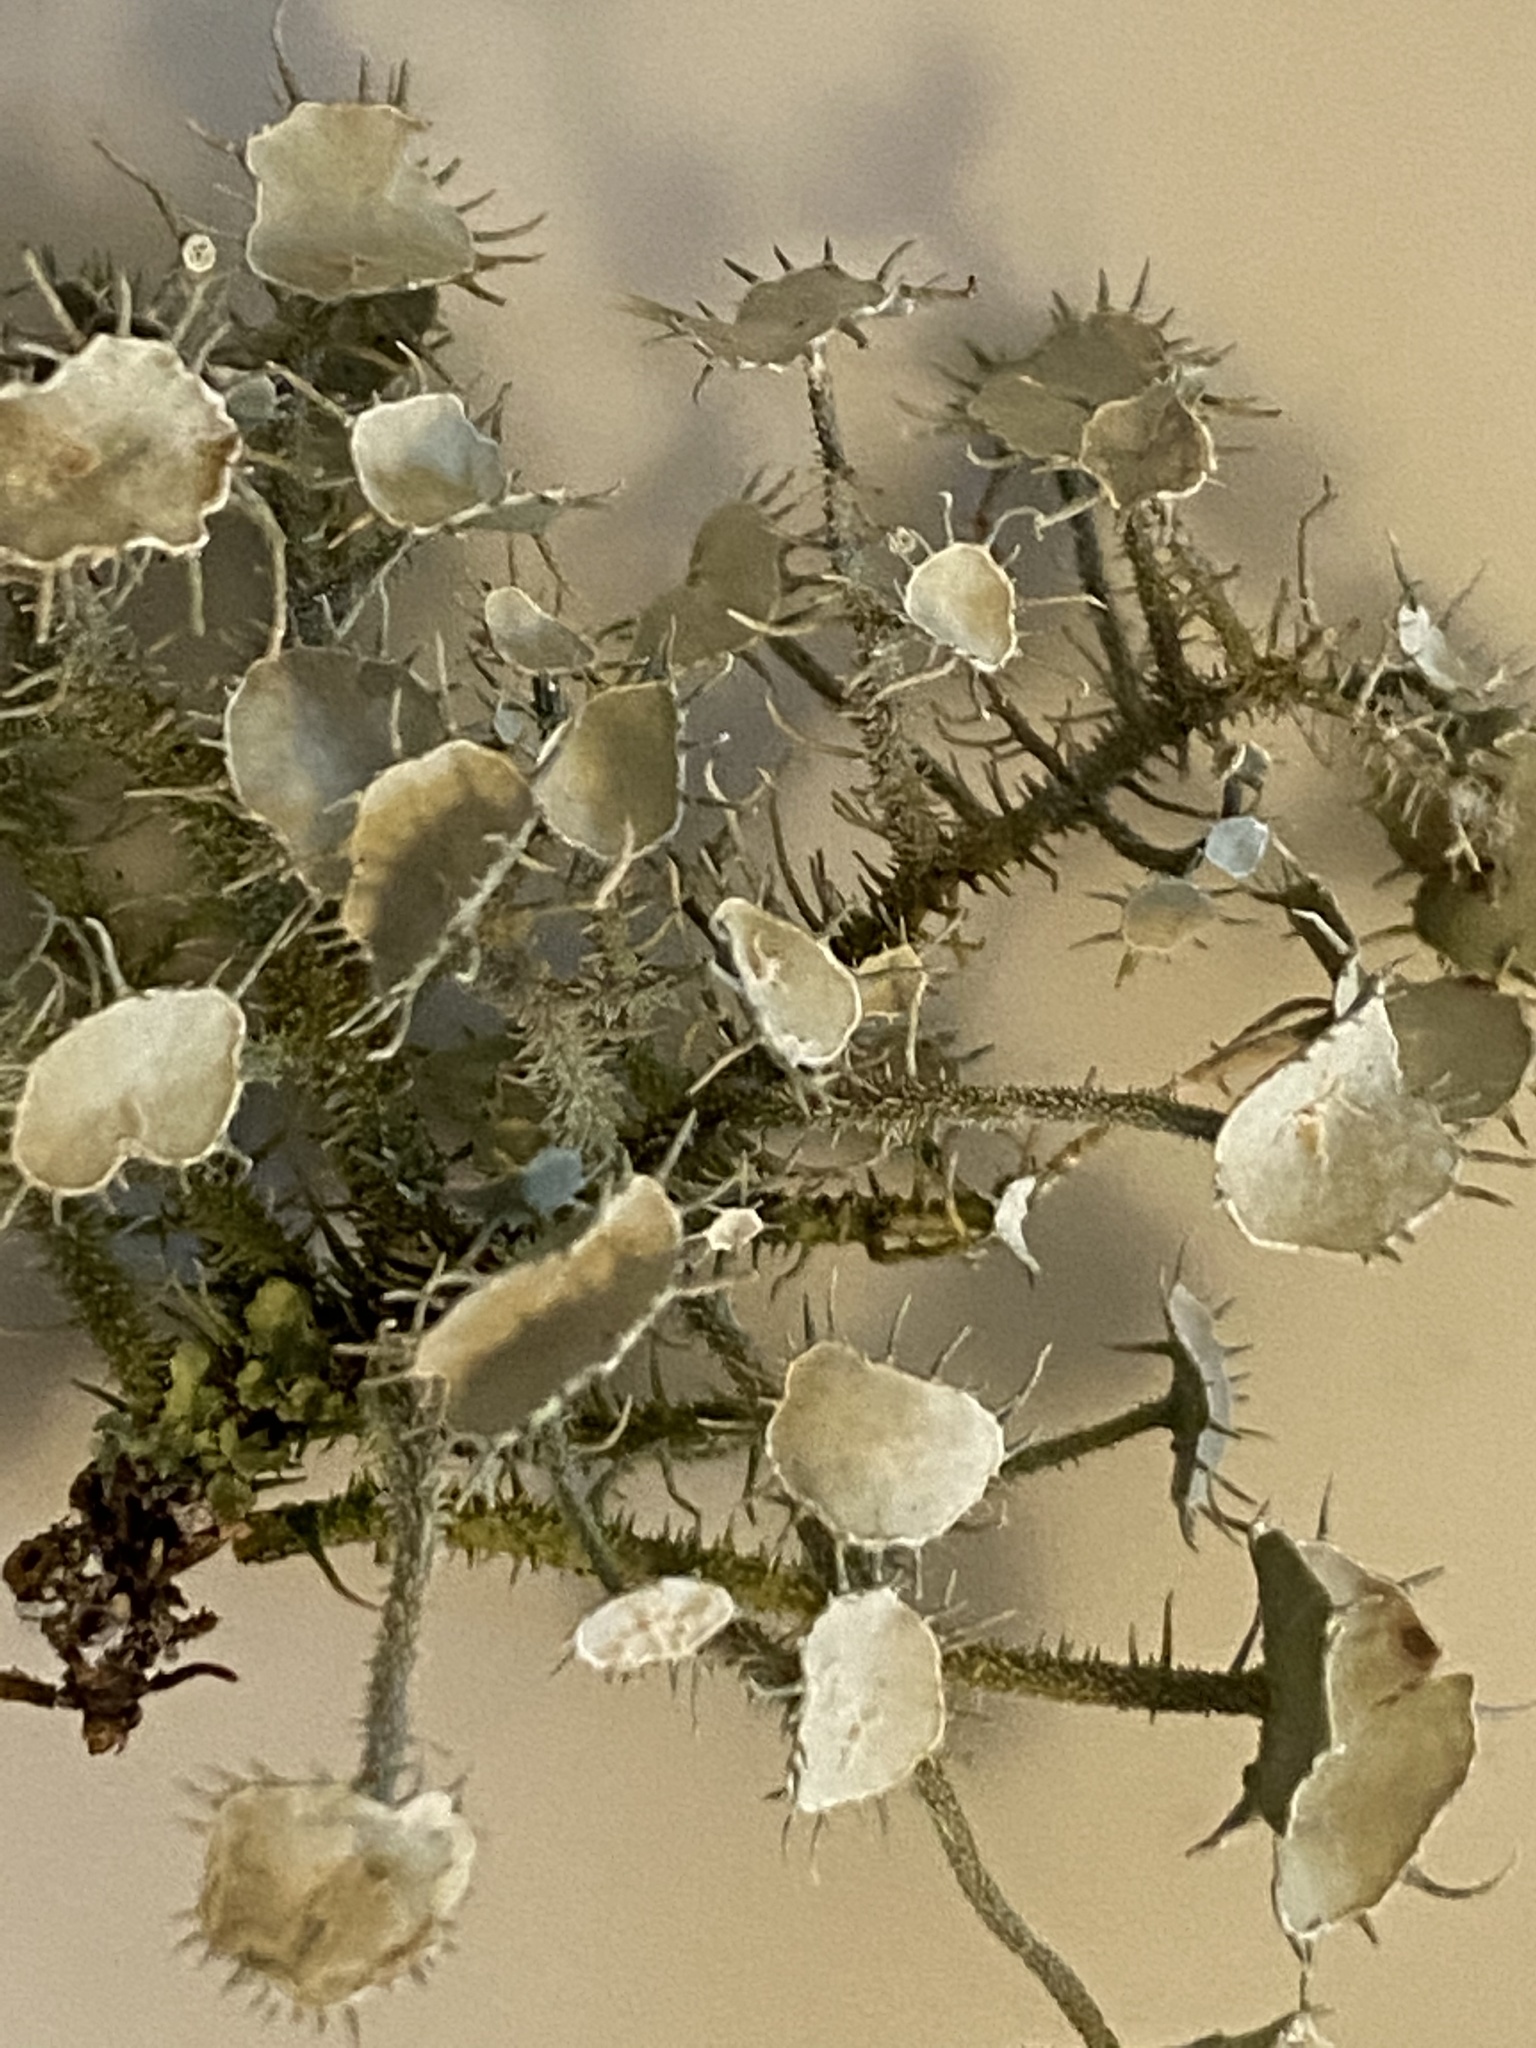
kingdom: Fungi
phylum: Ascomycota
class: Lecanoromycetes
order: Lecanorales
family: Parmeliaceae
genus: Usnea
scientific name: Usnea strigosa
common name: Bushy beard lichen
